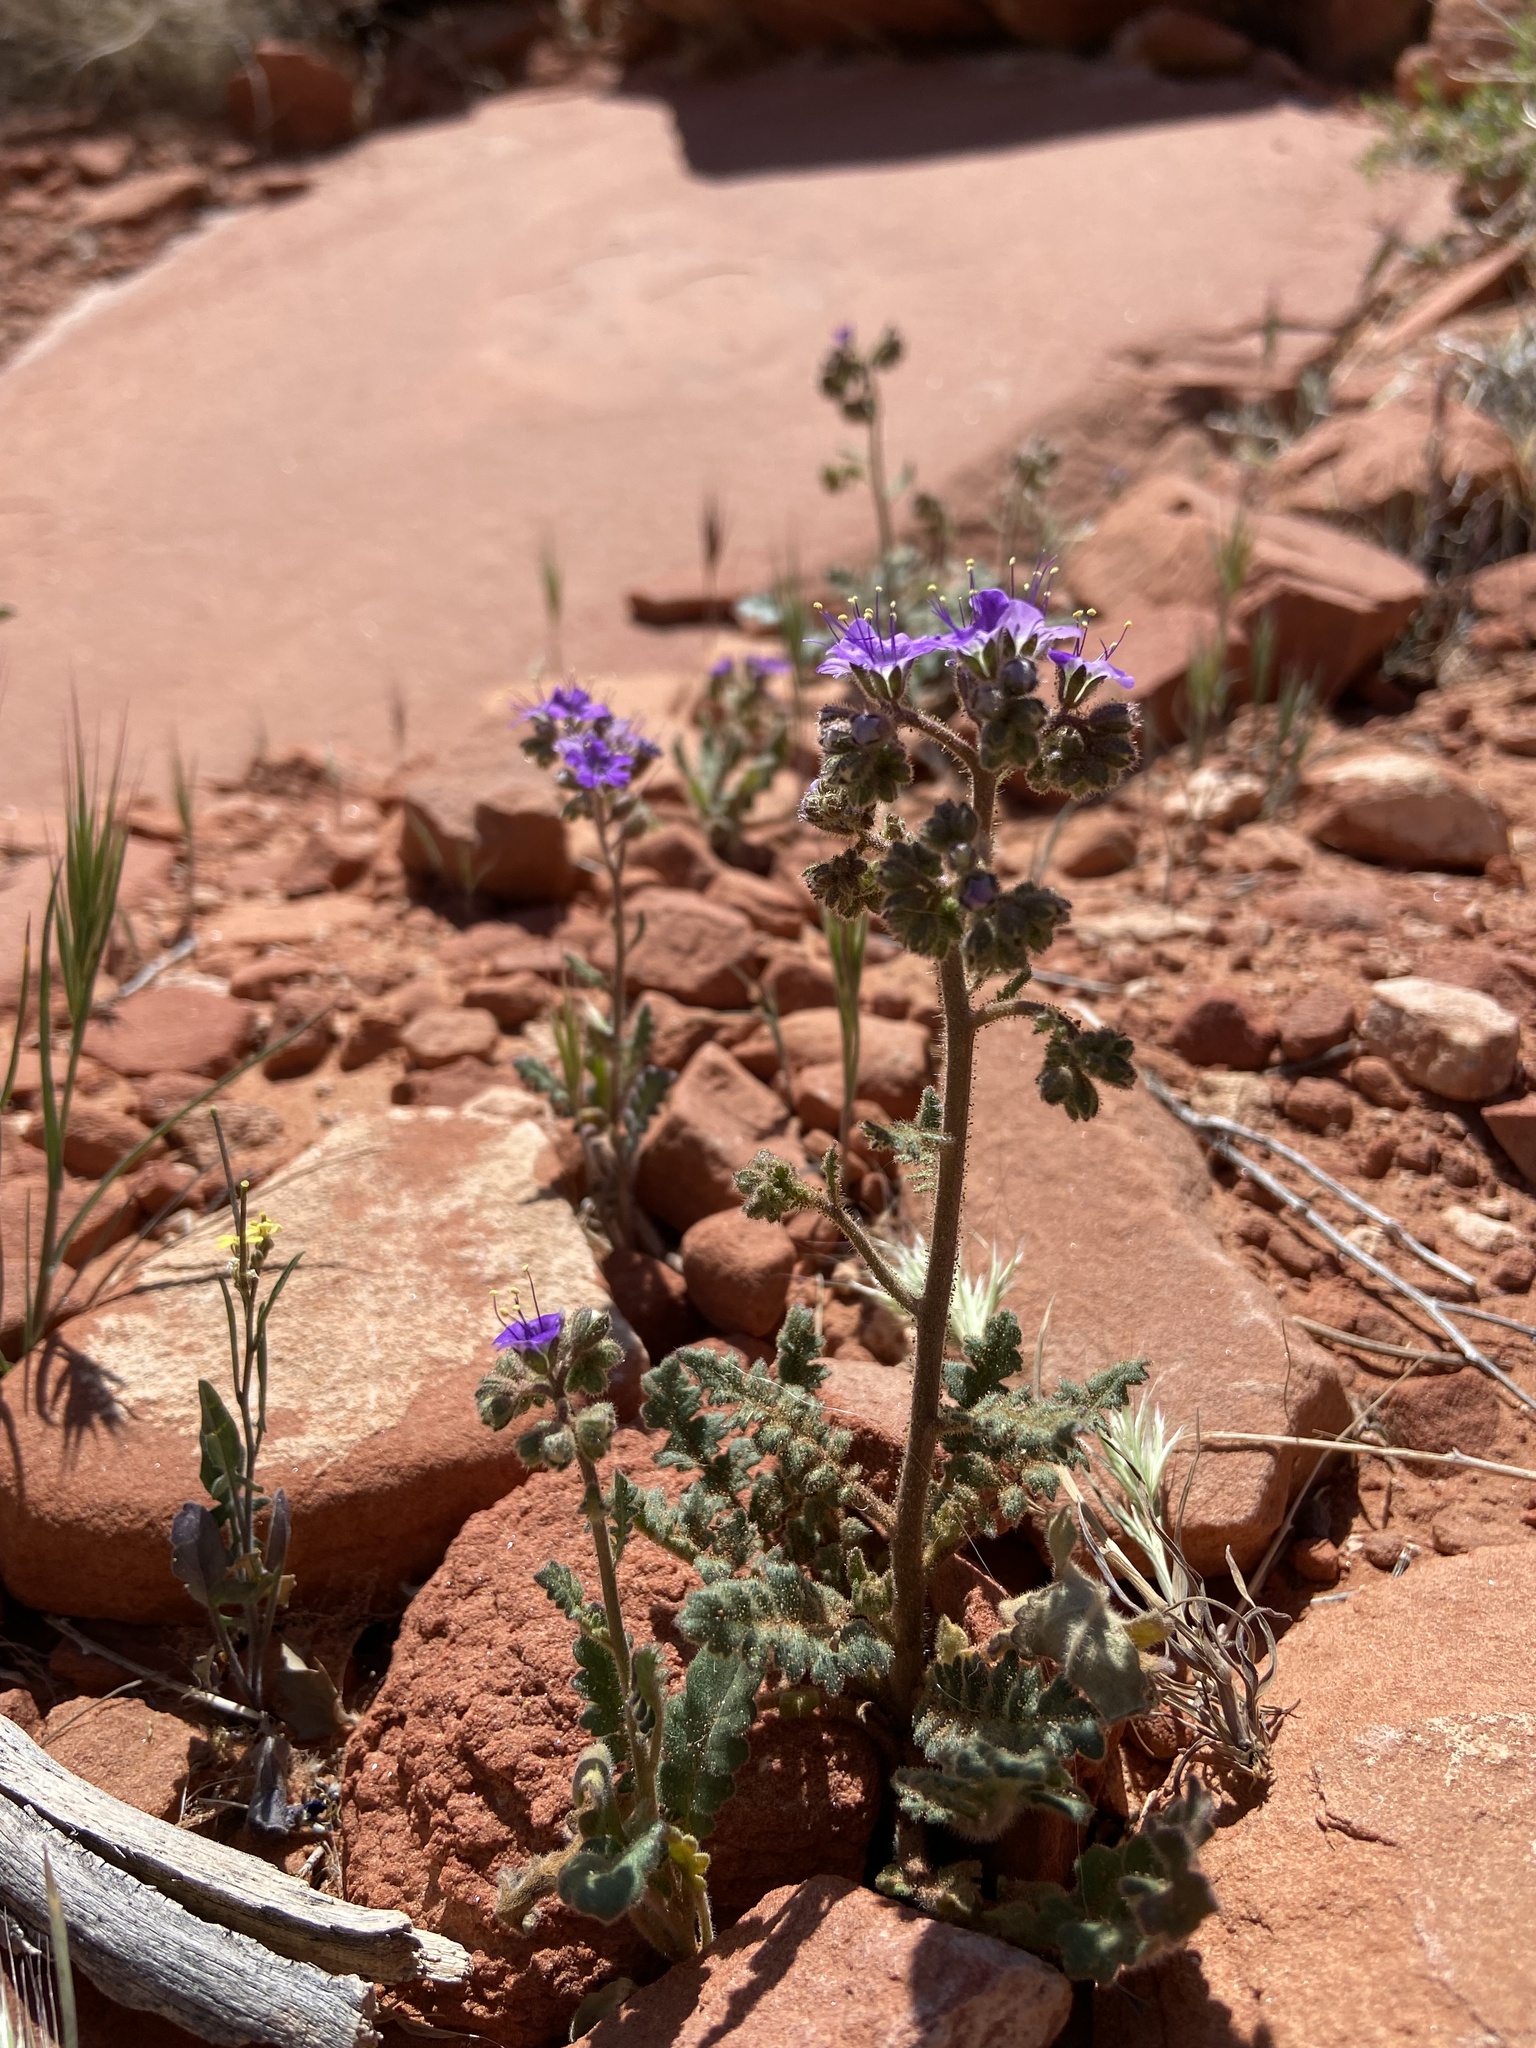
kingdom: Plantae
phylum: Tracheophyta
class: Magnoliopsida
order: Boraginales
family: Hydrophyllaceae
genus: Phacelia
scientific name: Phacelia crenulata
